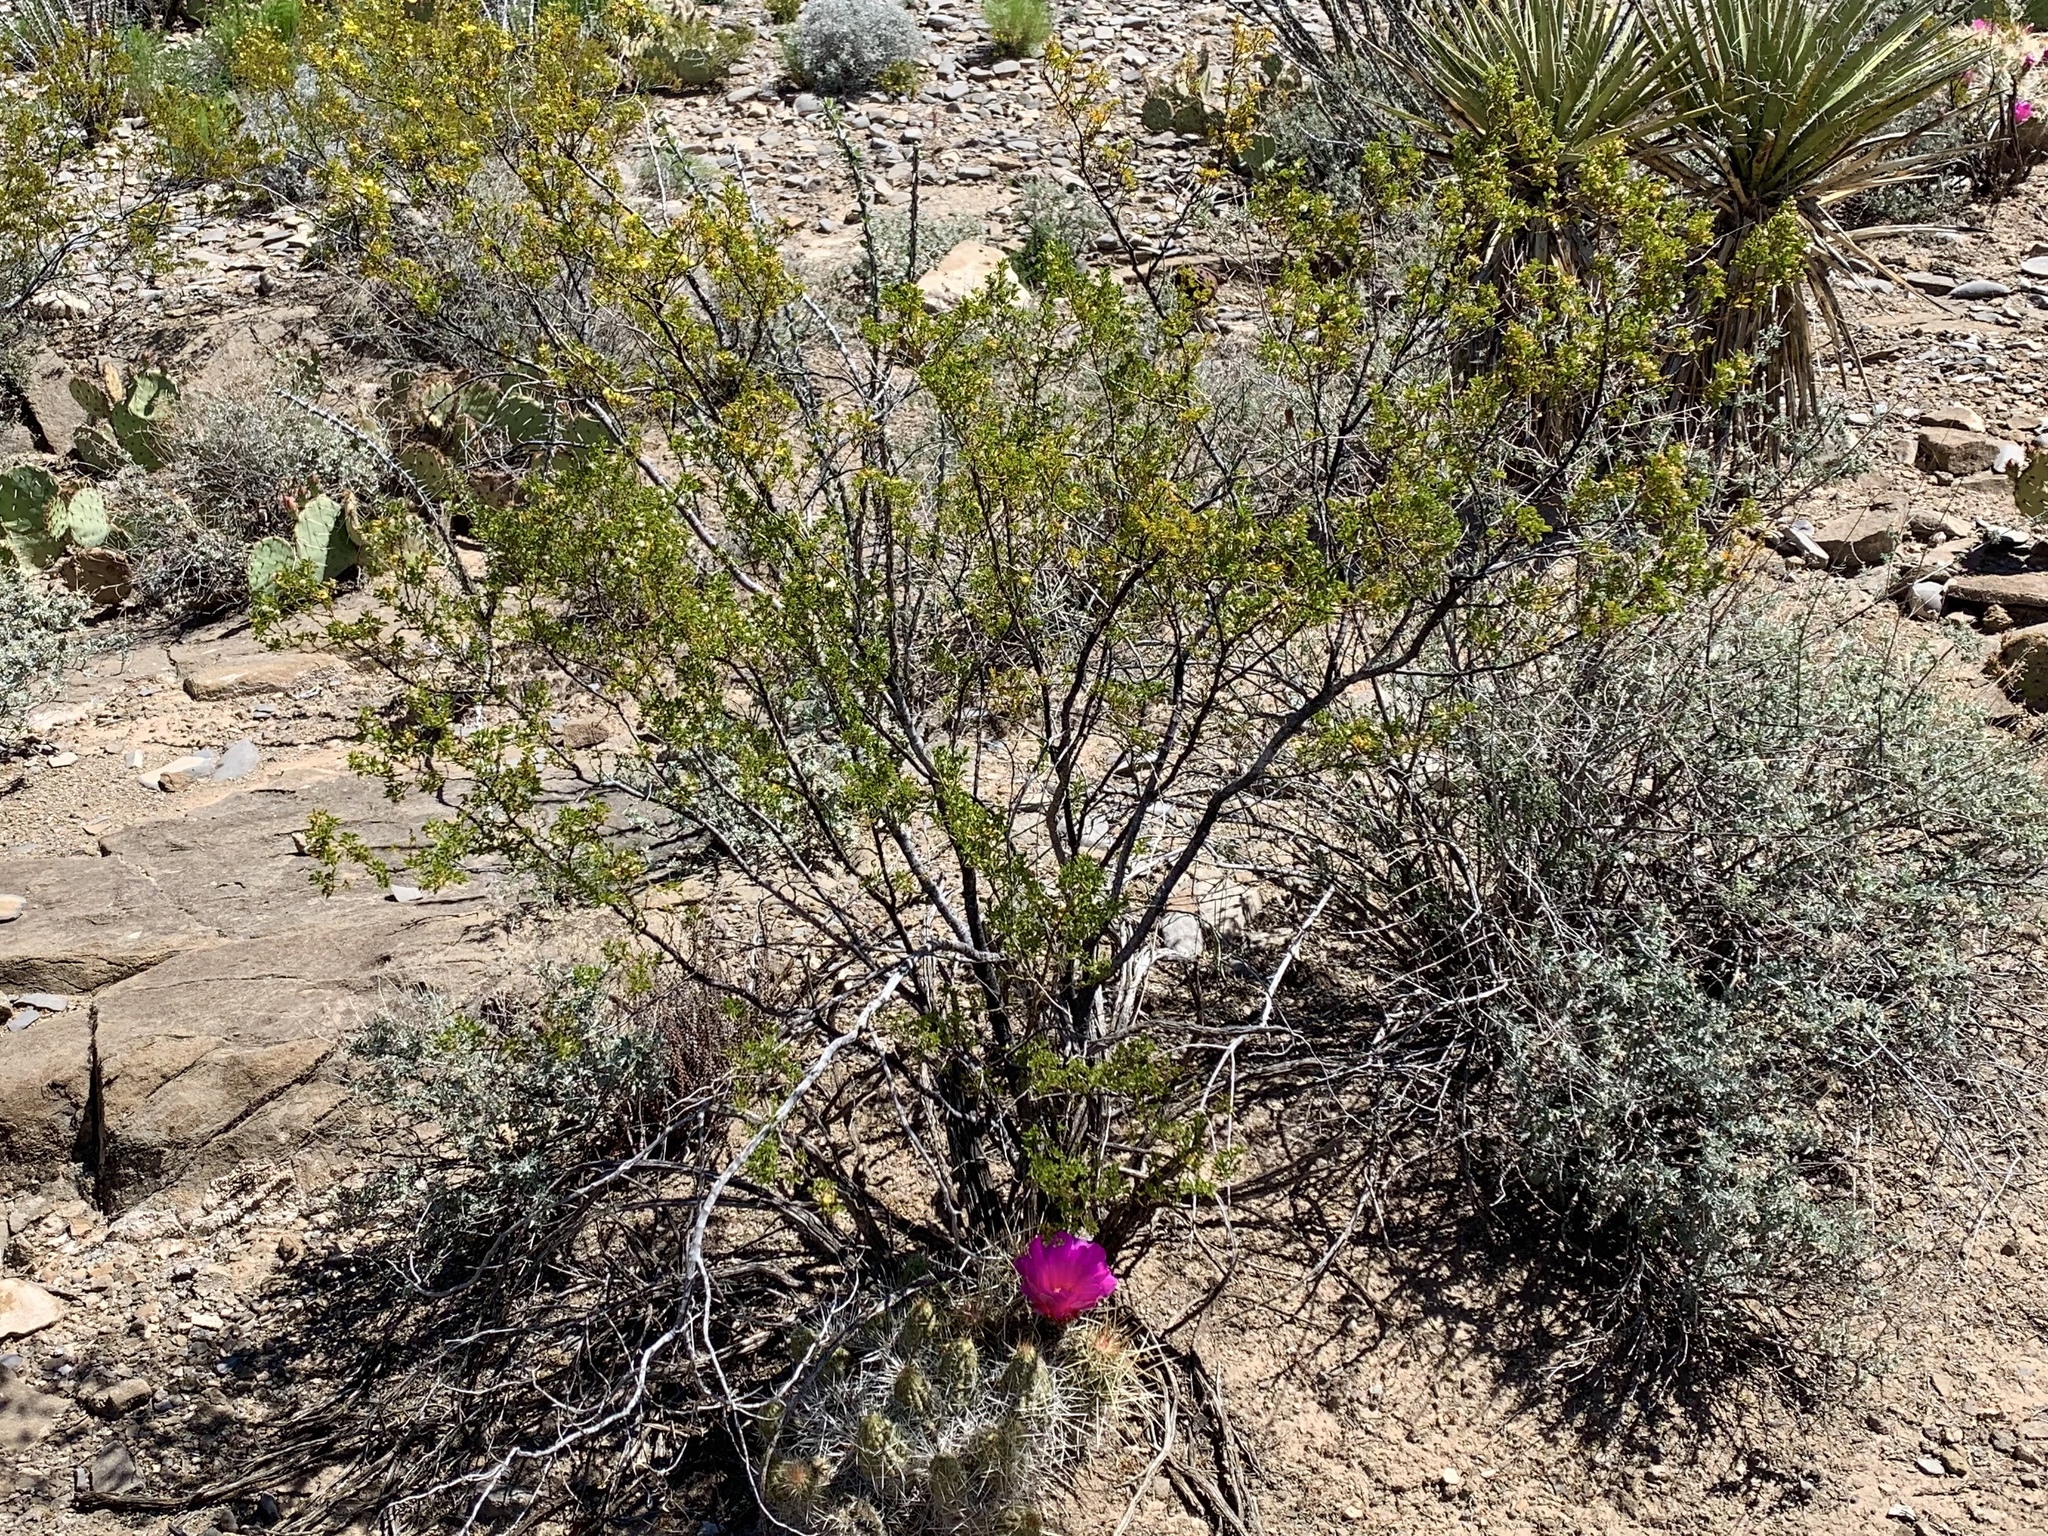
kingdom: Plantae
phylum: Tracheophyta
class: Magnoliopsida
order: Zygophyllales
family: Zygophyllaceae
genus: Larrea
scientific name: Larrea tridentata
